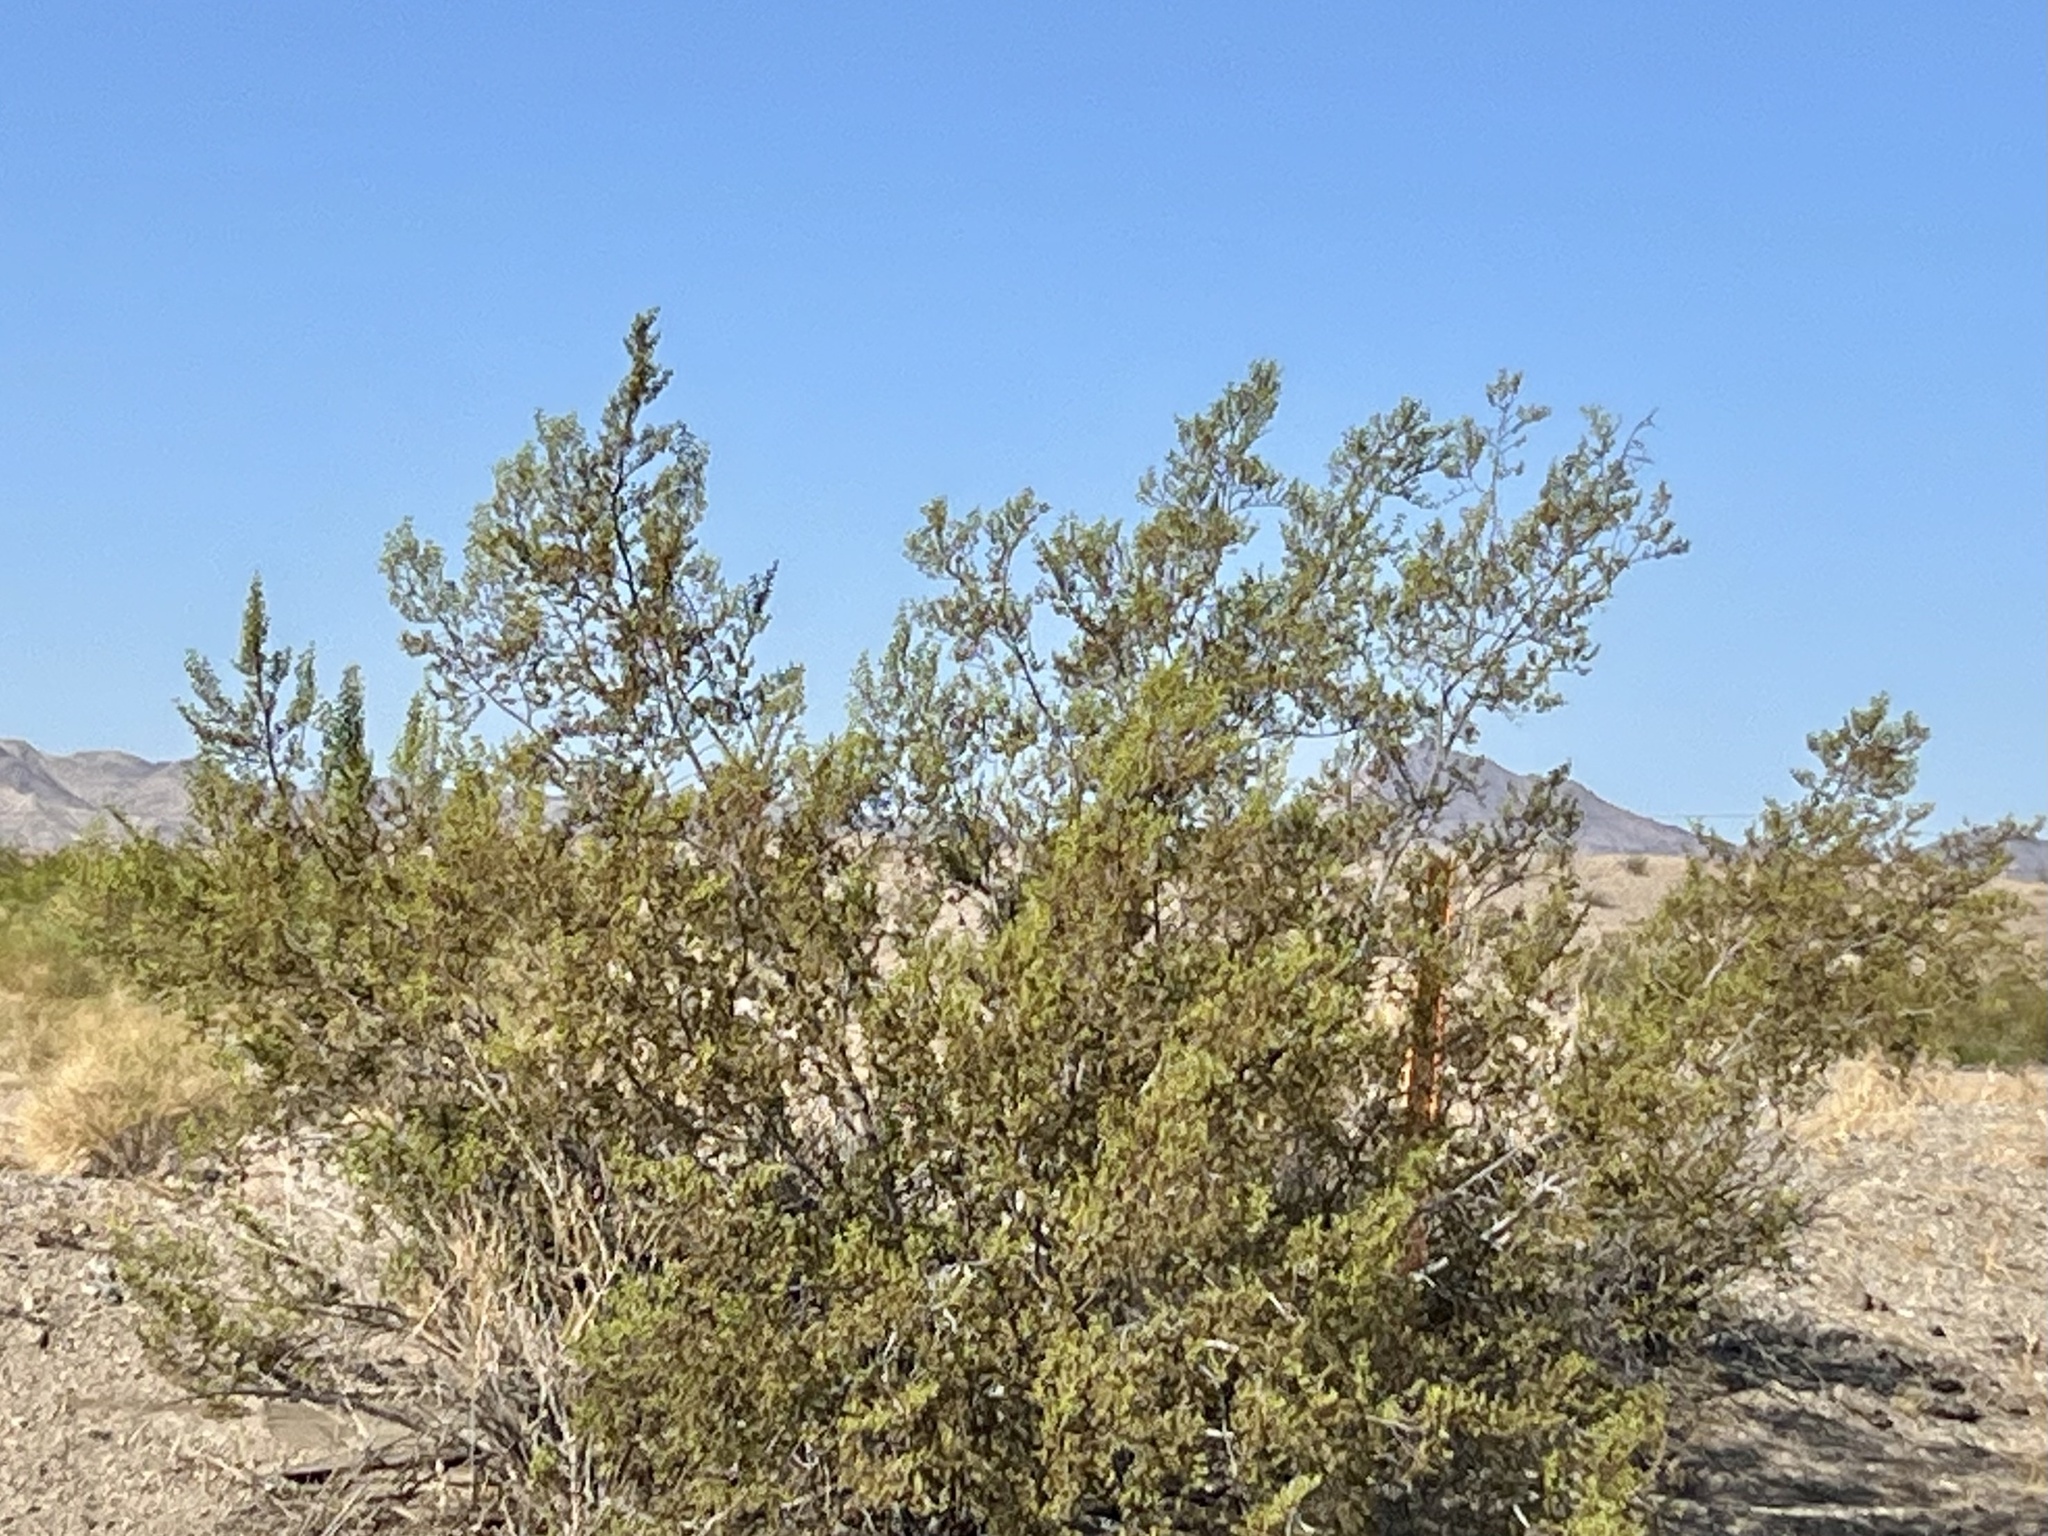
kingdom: Plantae
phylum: Tracheophyta
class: Magnoliopsida
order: Zygophyllales
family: Zygophyllaceae
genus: Larrea
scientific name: Larrea tridentata
